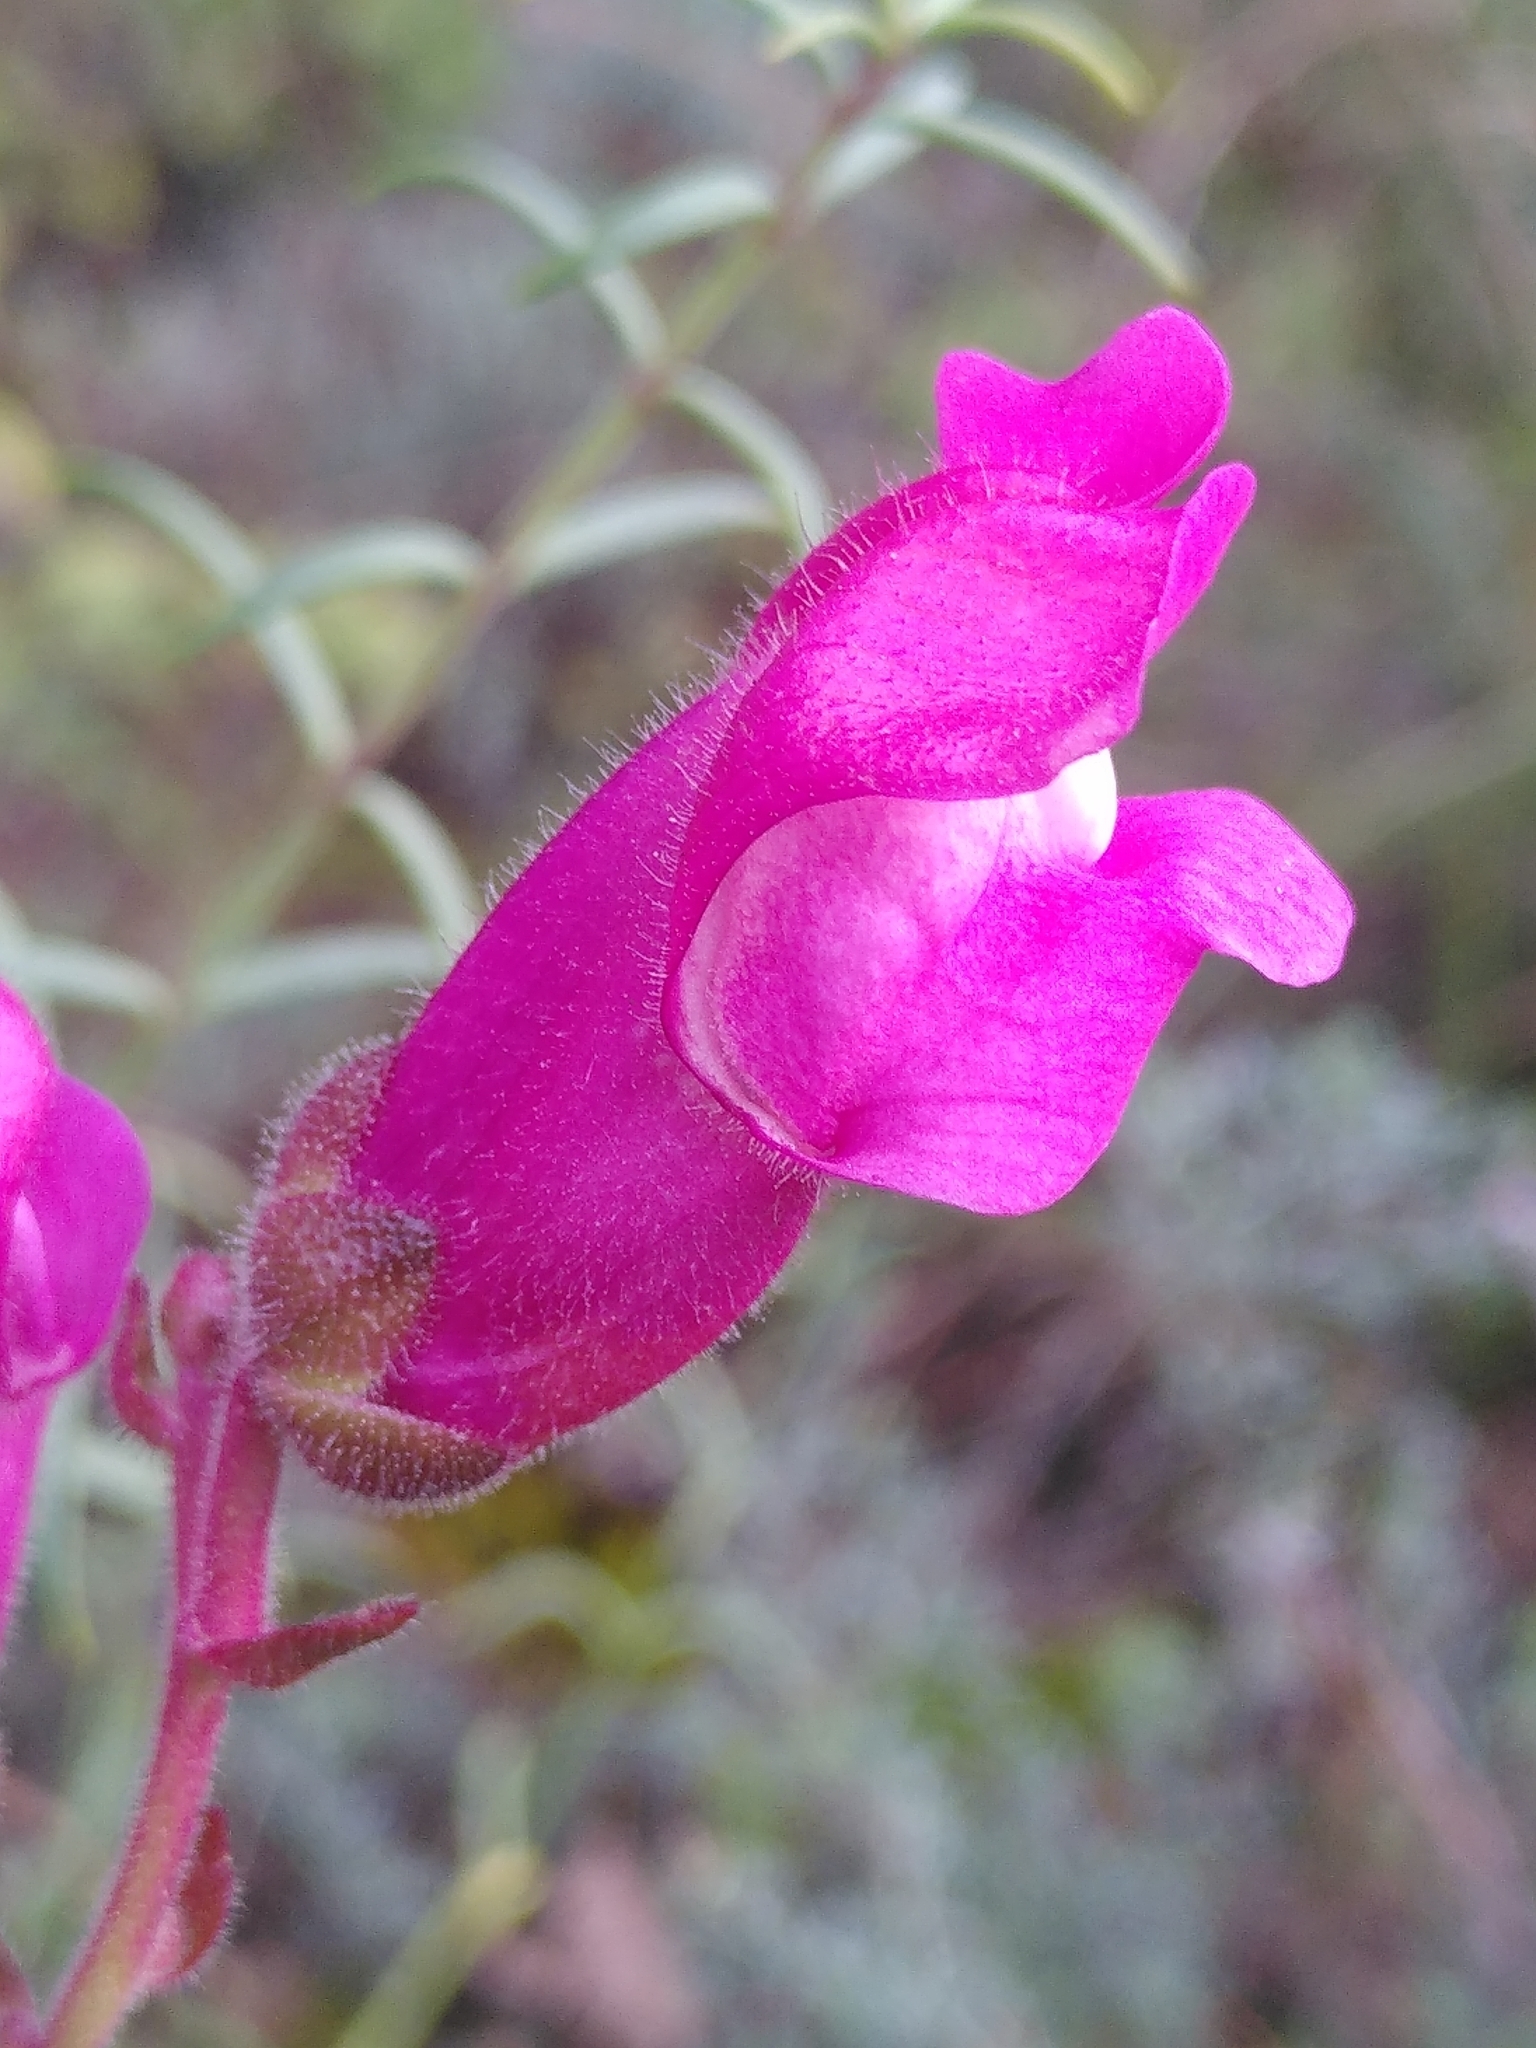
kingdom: Plantae
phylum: Tracheophyta
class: Magnoliopsida
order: Lamiales
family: Plantaginaceae
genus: Antirrhinum
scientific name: Antirrhinum majus
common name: Snapdragon
